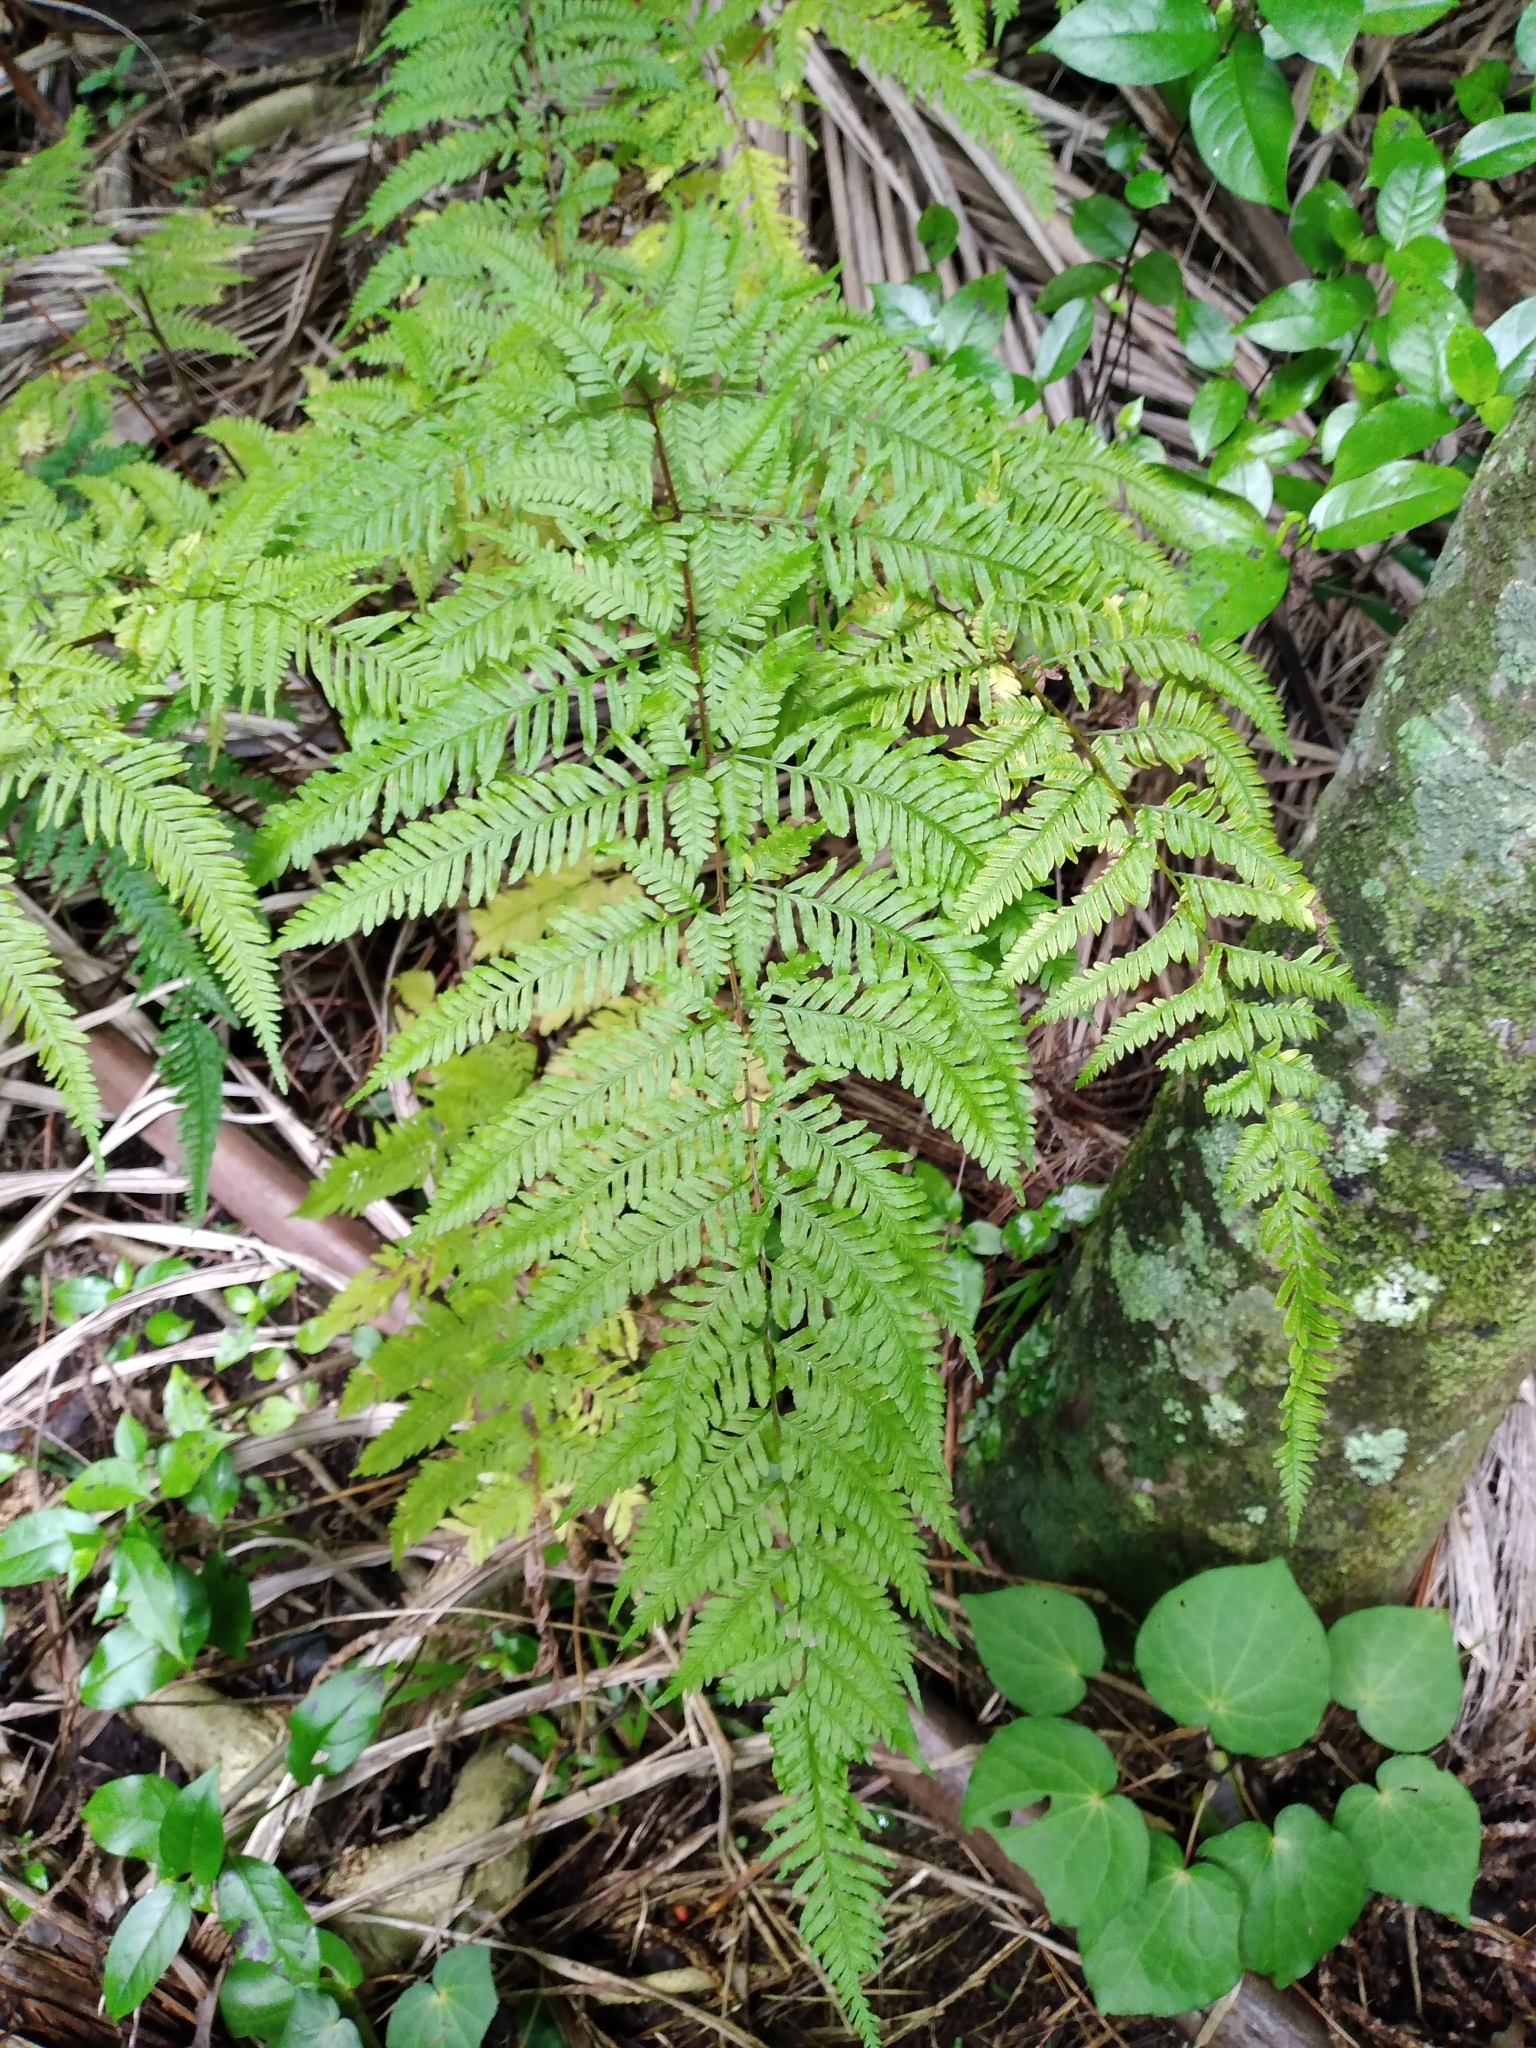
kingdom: Plantae
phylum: Tracheophyta
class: Polypodiopsida
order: Polypodiales
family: Pteridaceae
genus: Pteris
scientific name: Pteris tremula
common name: Australian brake
